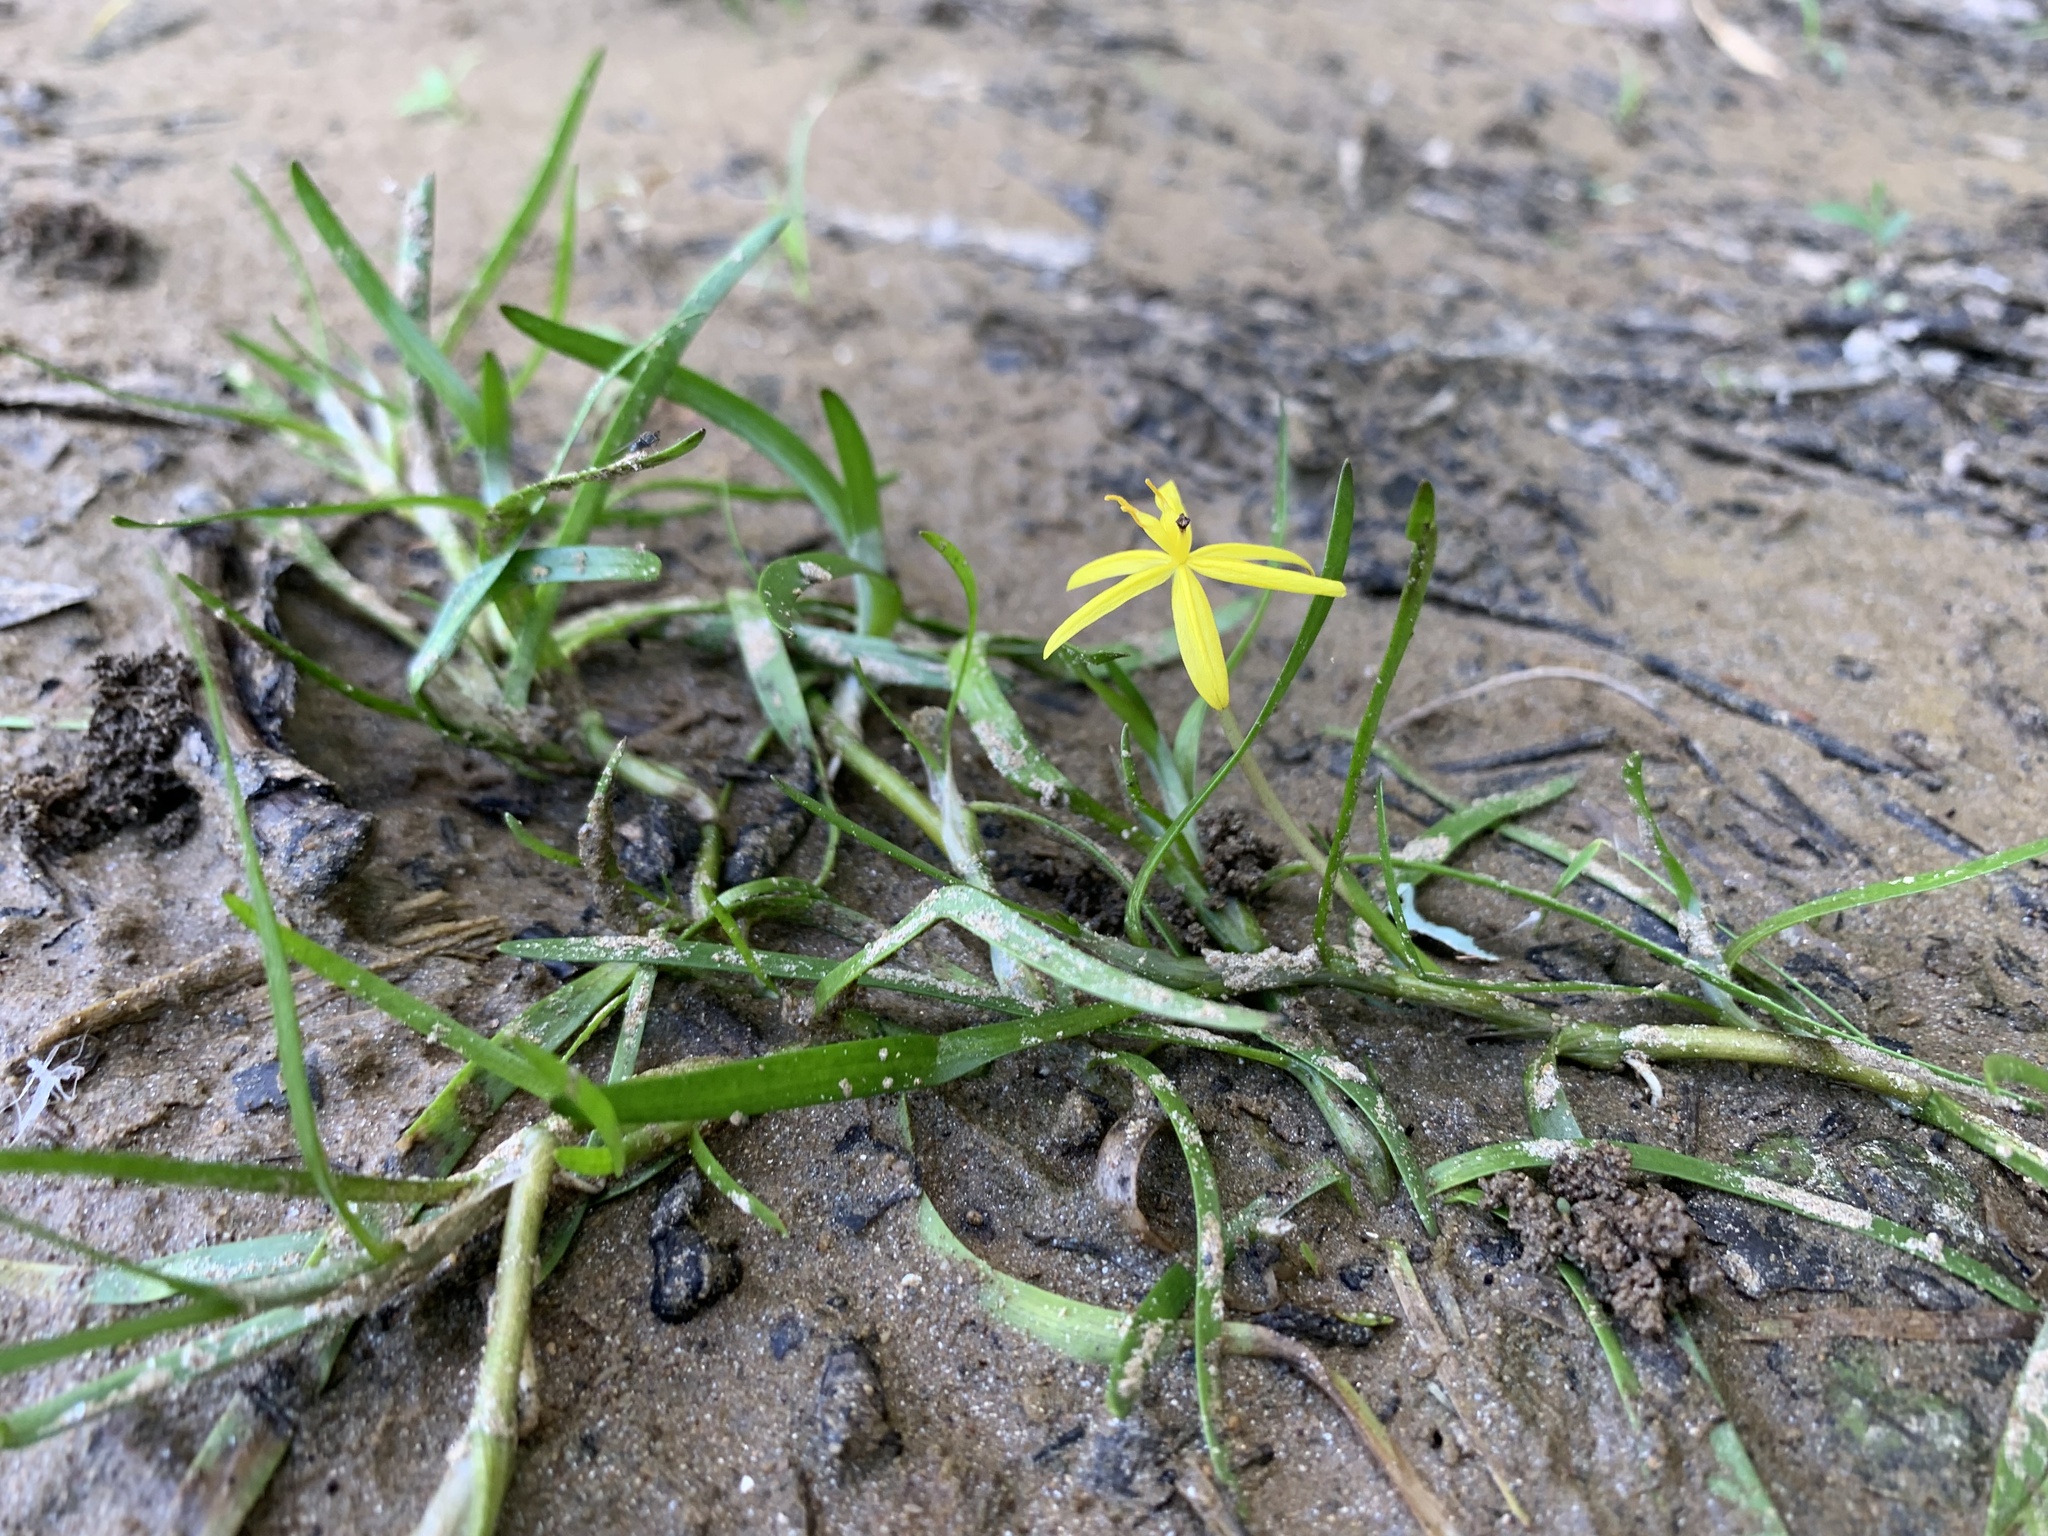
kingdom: Plantae
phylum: Tracheophyta
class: Liliopsida
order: Commelinales
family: Pontederiaceae
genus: Heteranthera
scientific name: Heteranthera dubia
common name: Grass-leaved mud plantain
